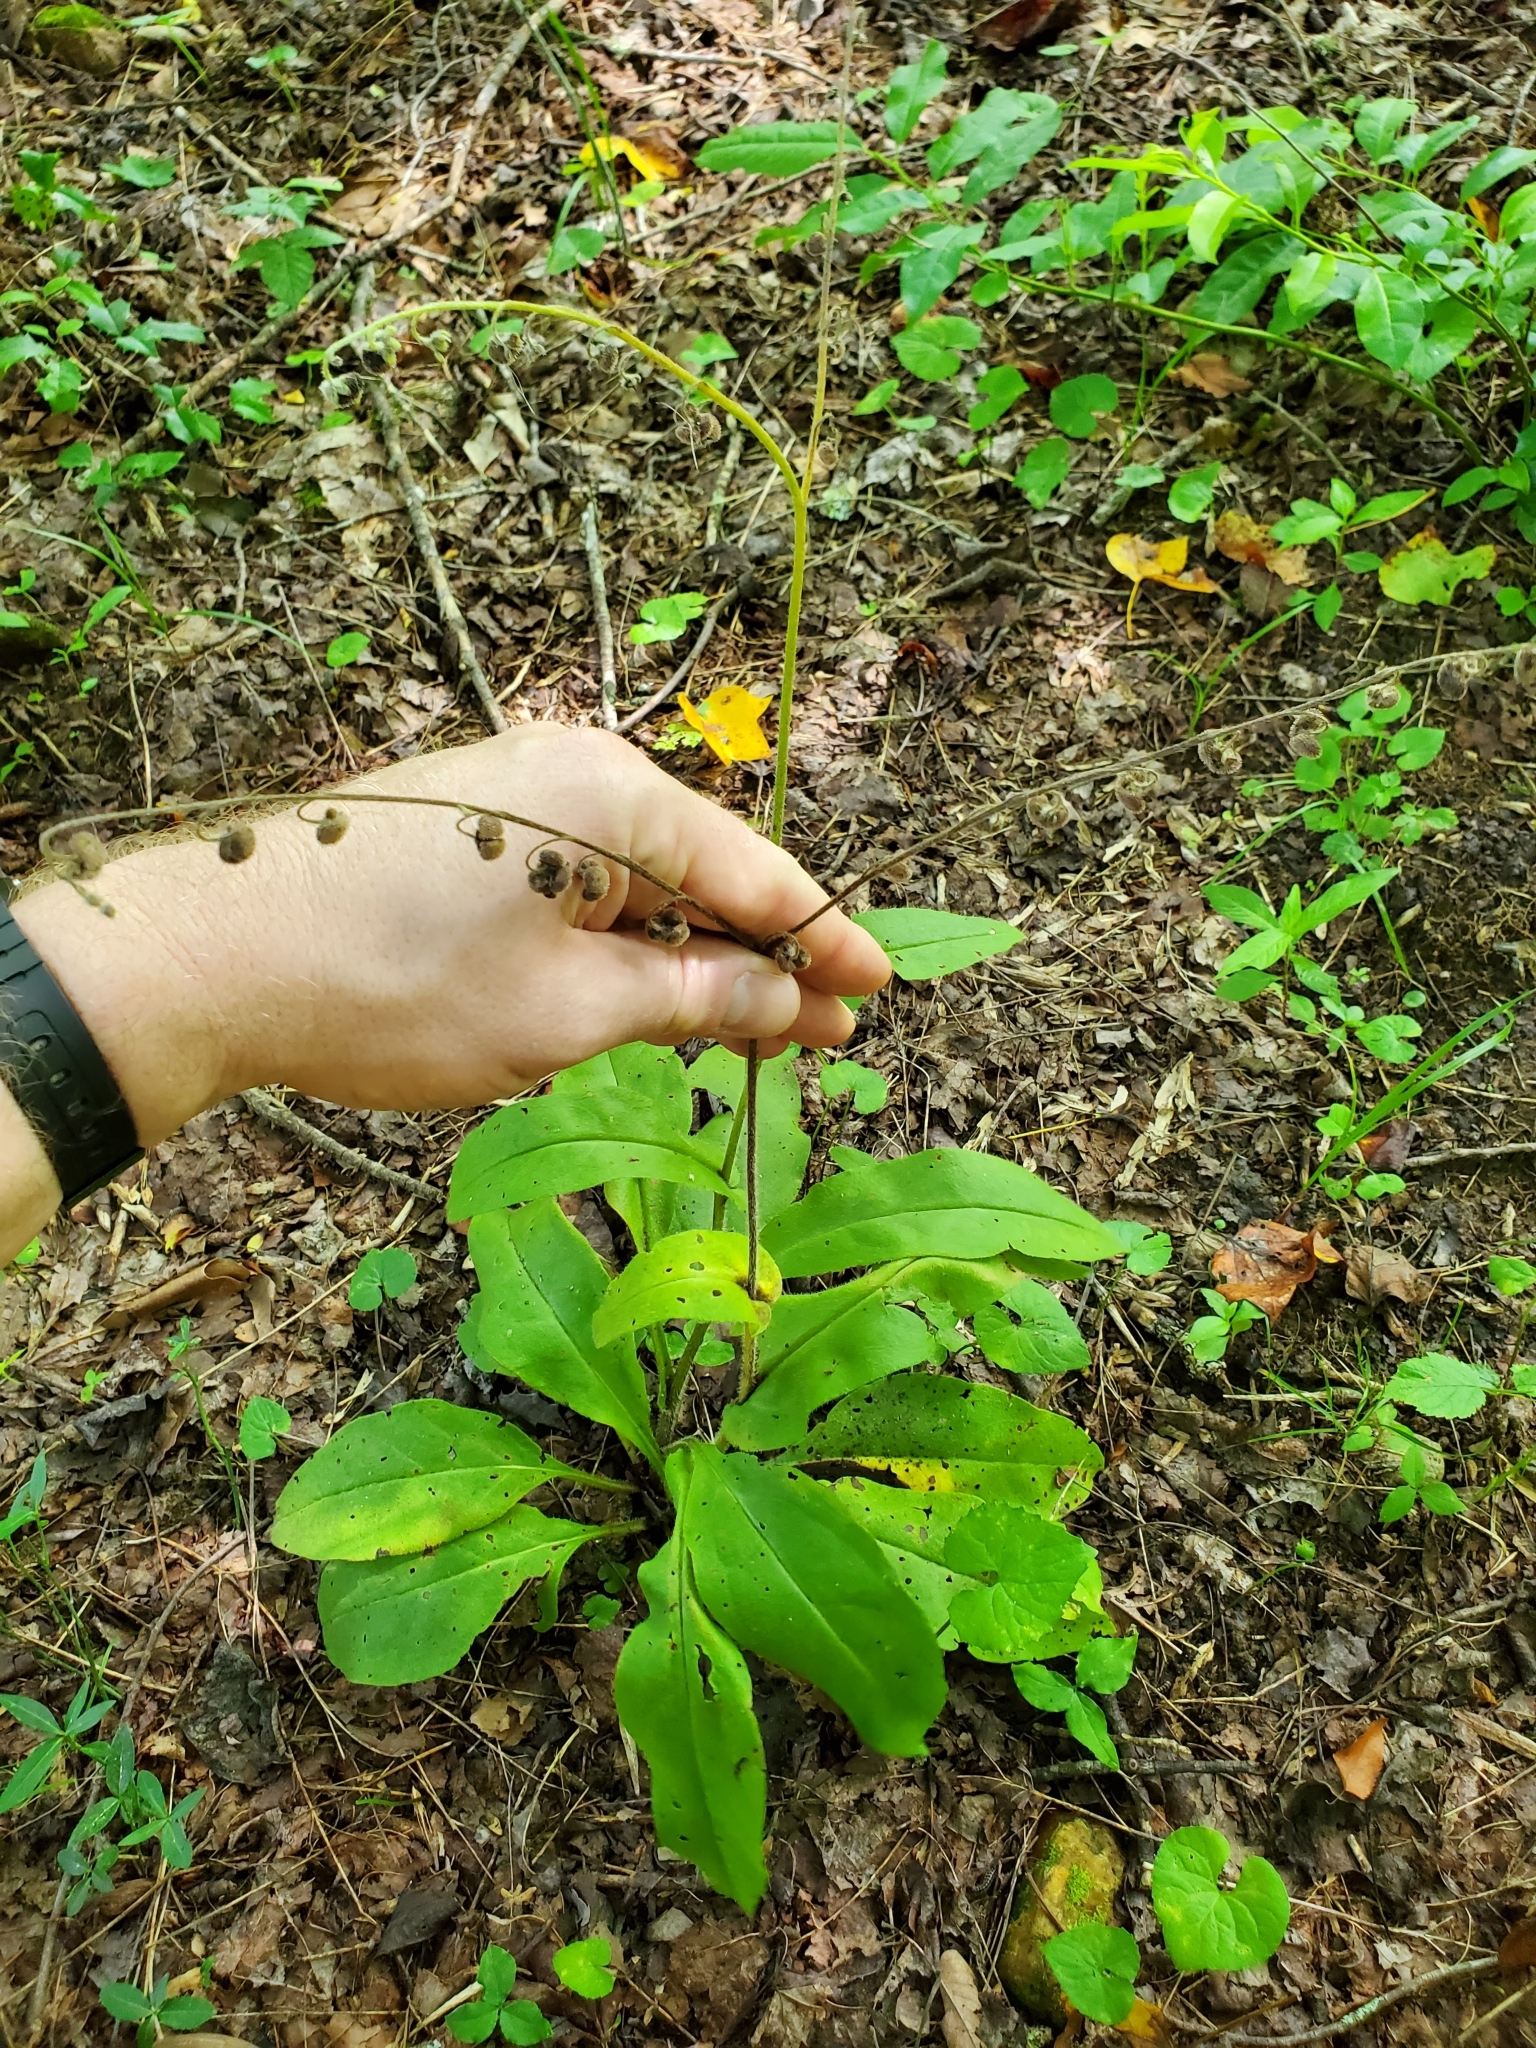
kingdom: Plantae
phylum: Tracheophyta
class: Magnoliopsida
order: Boraginales
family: Boraginaceae
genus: Andersonglossum
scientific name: Andersonglossum virginianum
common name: Wild comfrey
